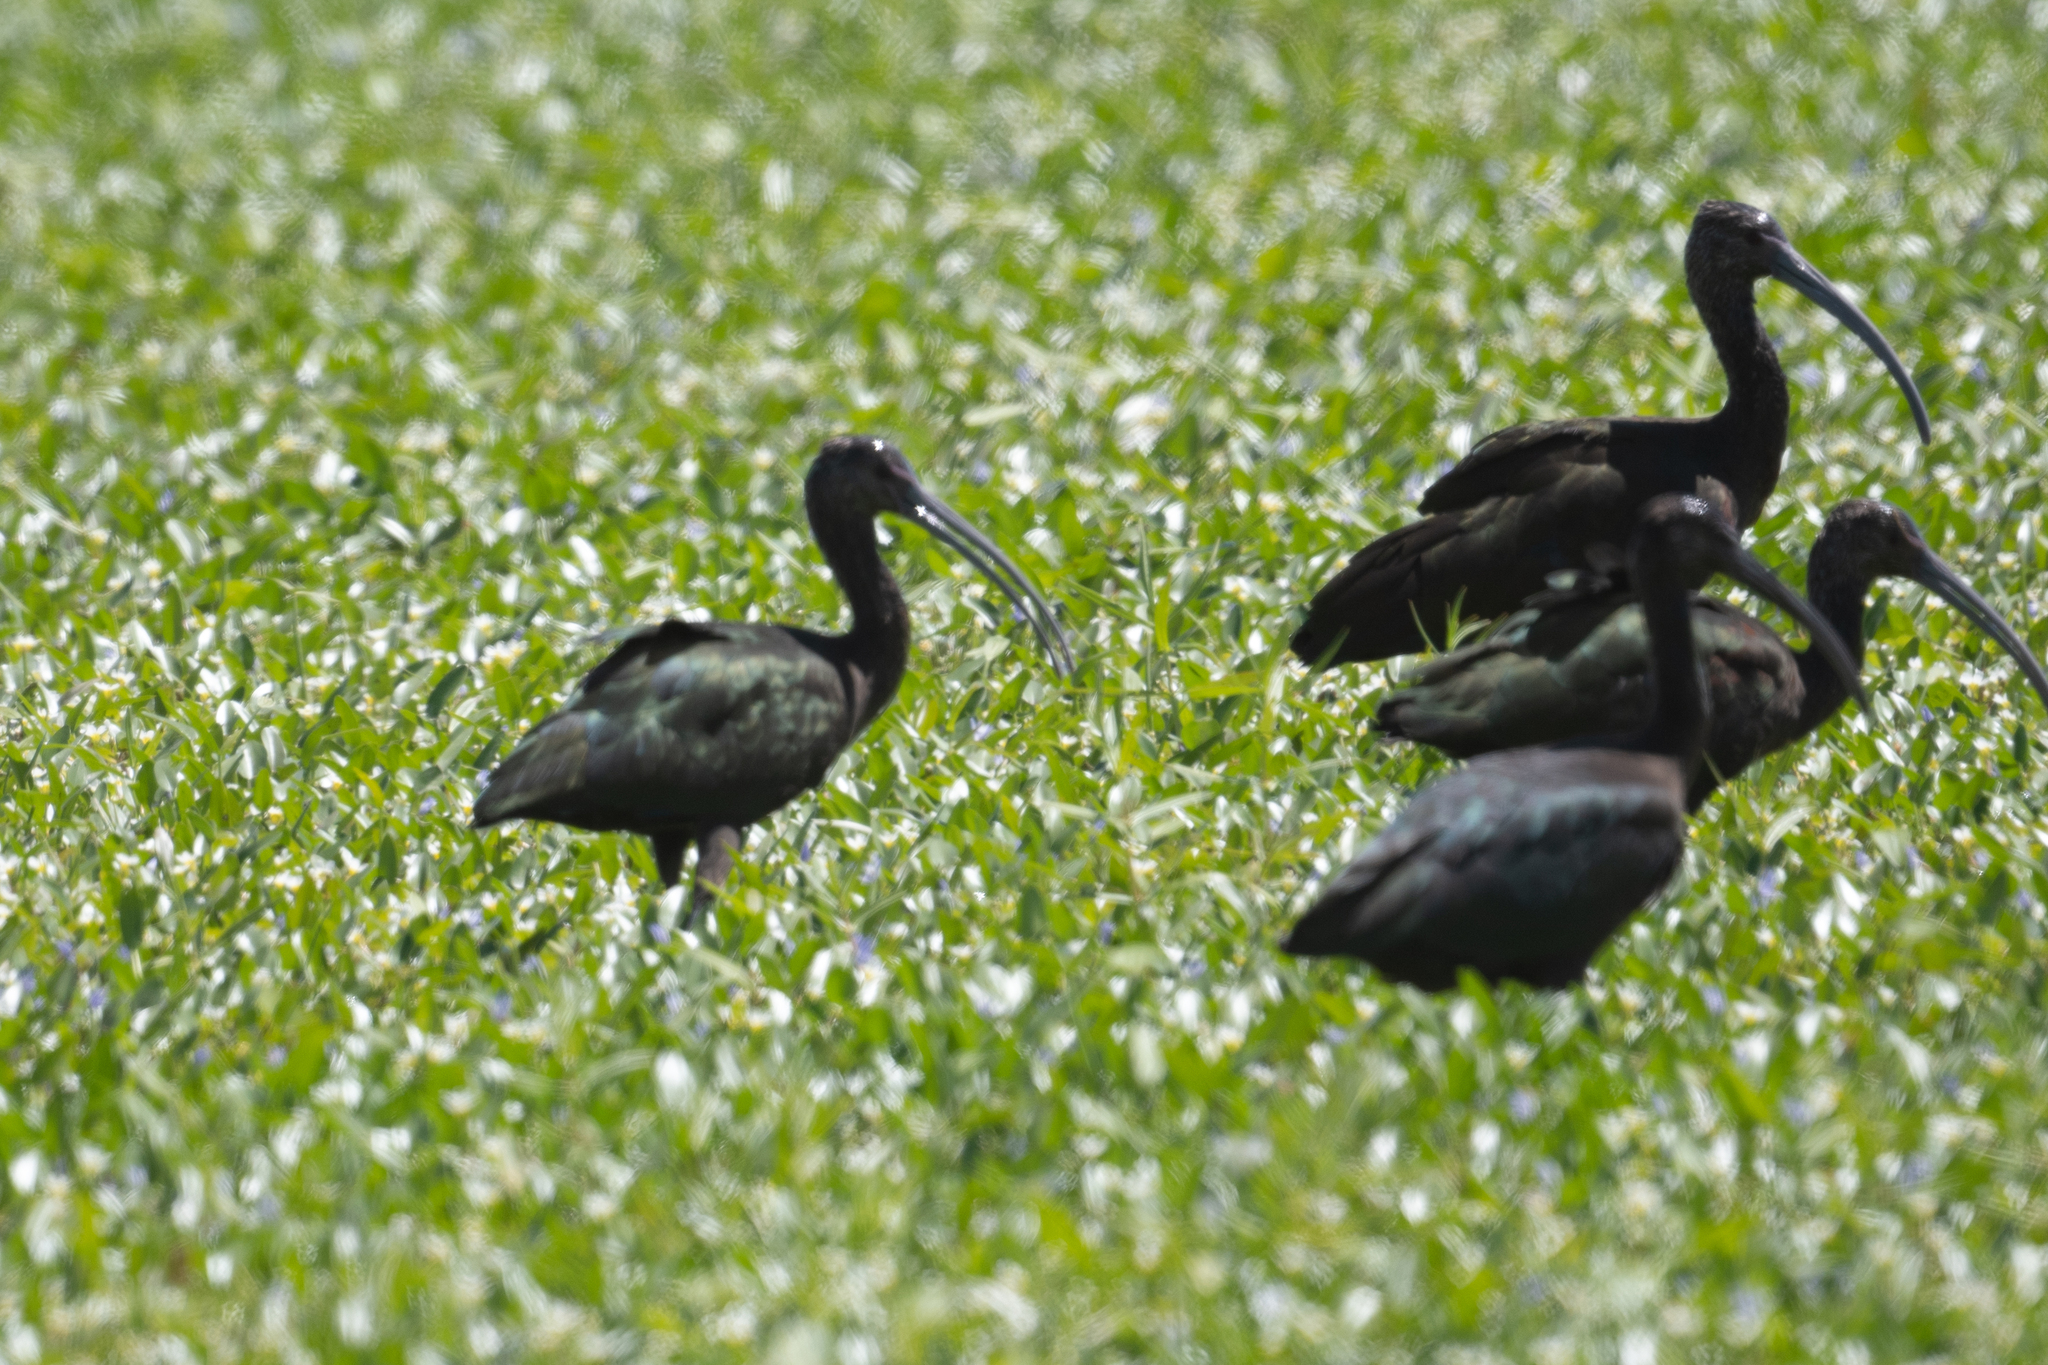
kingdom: Animalia
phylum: Chordata
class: Aves
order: Pelecaniformes
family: Threskiornithidae
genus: Plegadis
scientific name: Plegadis chihi
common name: White-faced ibis
